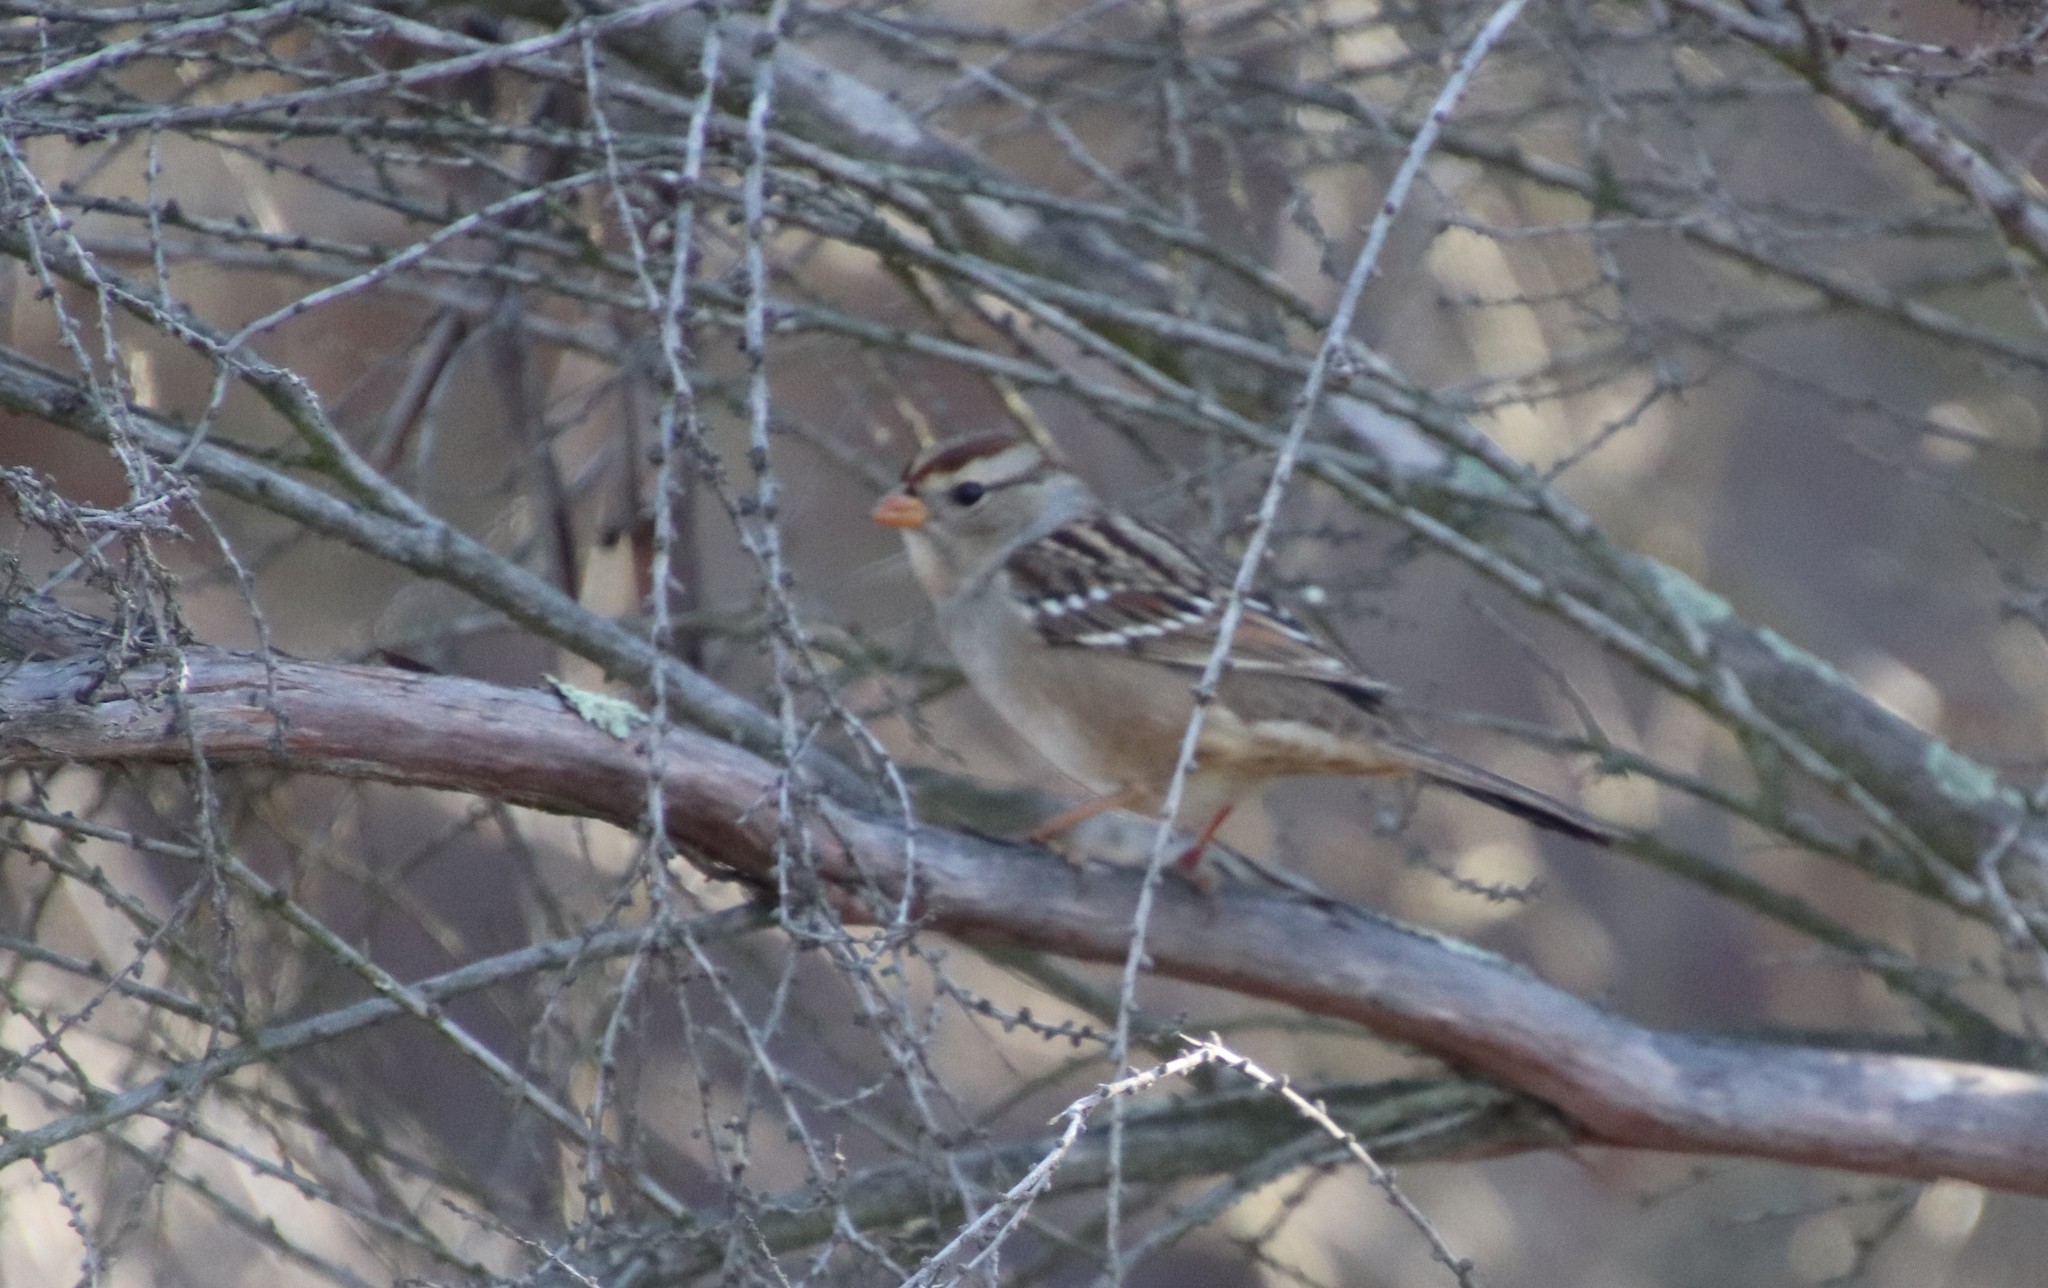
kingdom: Animalia
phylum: Chordata
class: Aves
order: Passeriformes
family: Passerellidae
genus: Zonotrichia
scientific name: Zonotrichia leucophrys
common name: White-crowned sparrow
